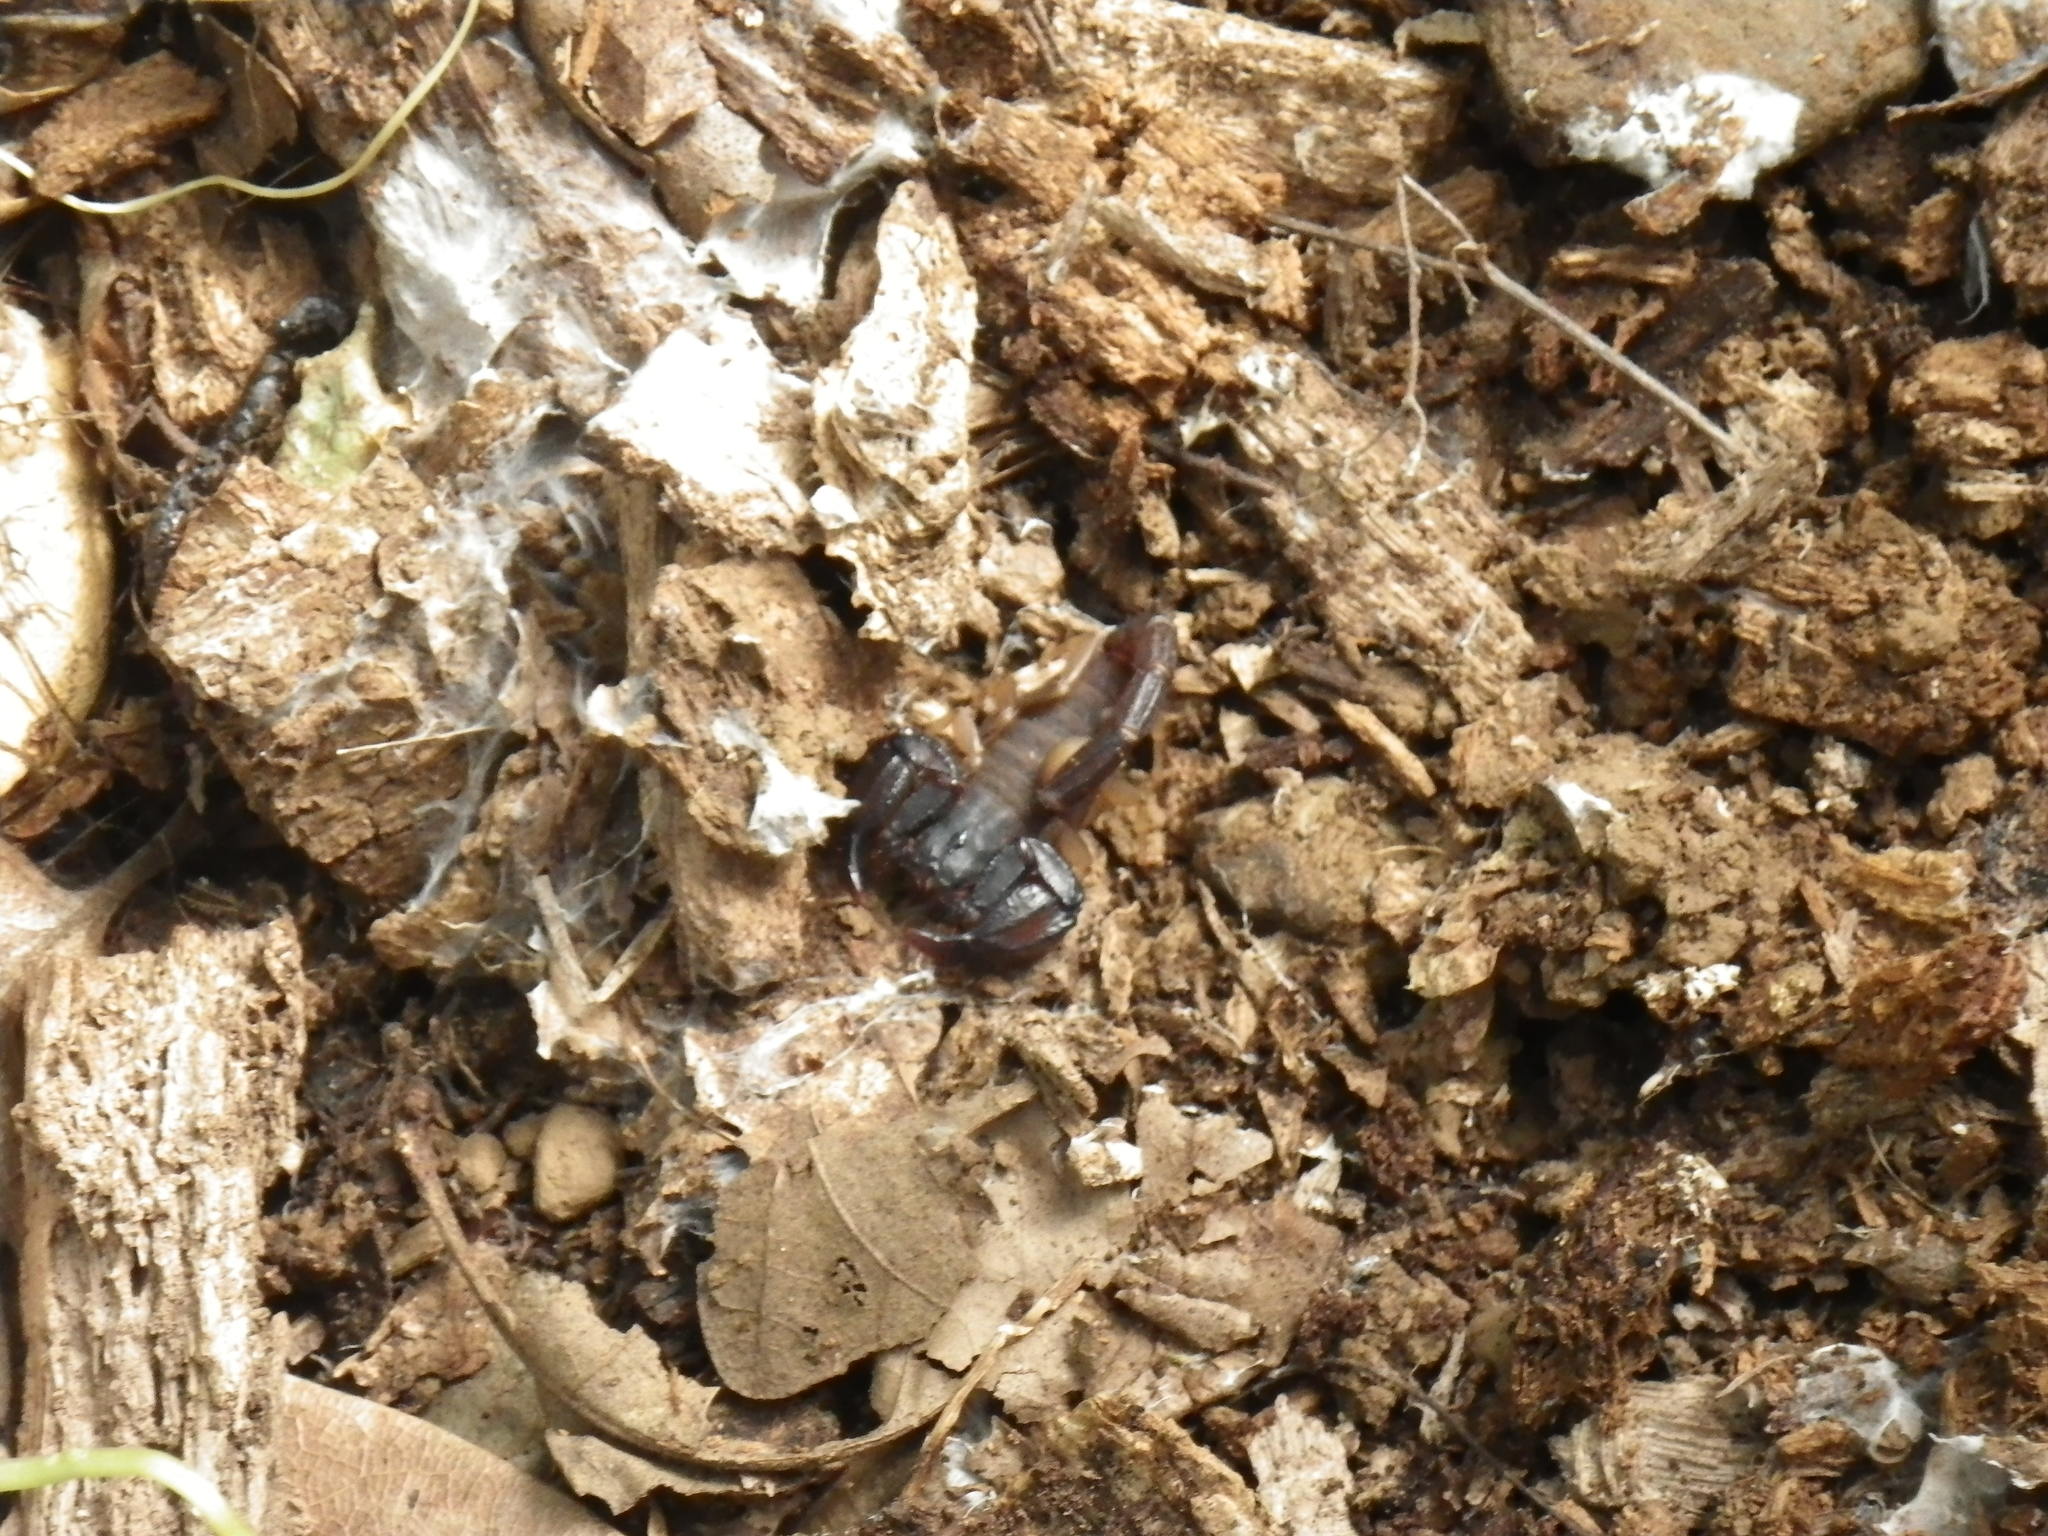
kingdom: Animalia
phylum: Arthropoda
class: Arachnida
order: Scorpiones
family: Chactidae
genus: Uroctonus
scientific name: Uroctonus mordax
